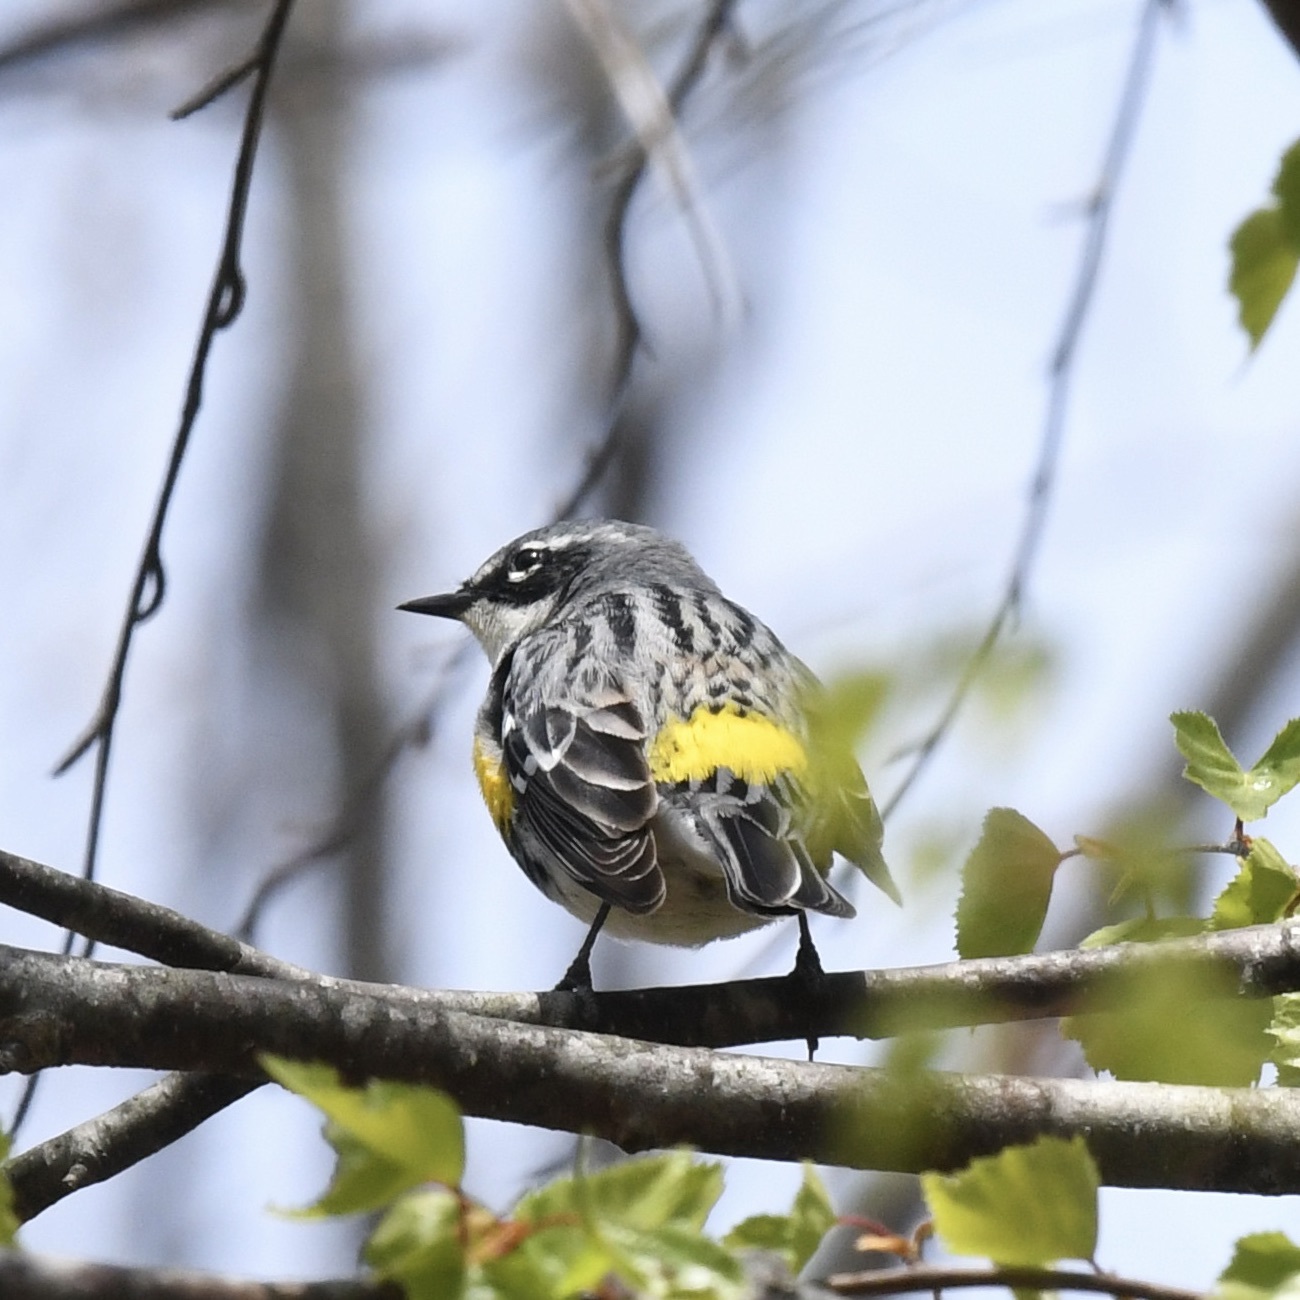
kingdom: Animalia
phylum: Chordata
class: Aves
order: Passeriformes
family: Parulidae
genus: Setophaga
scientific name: Setophaga coronata
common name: Myrtle warbler
